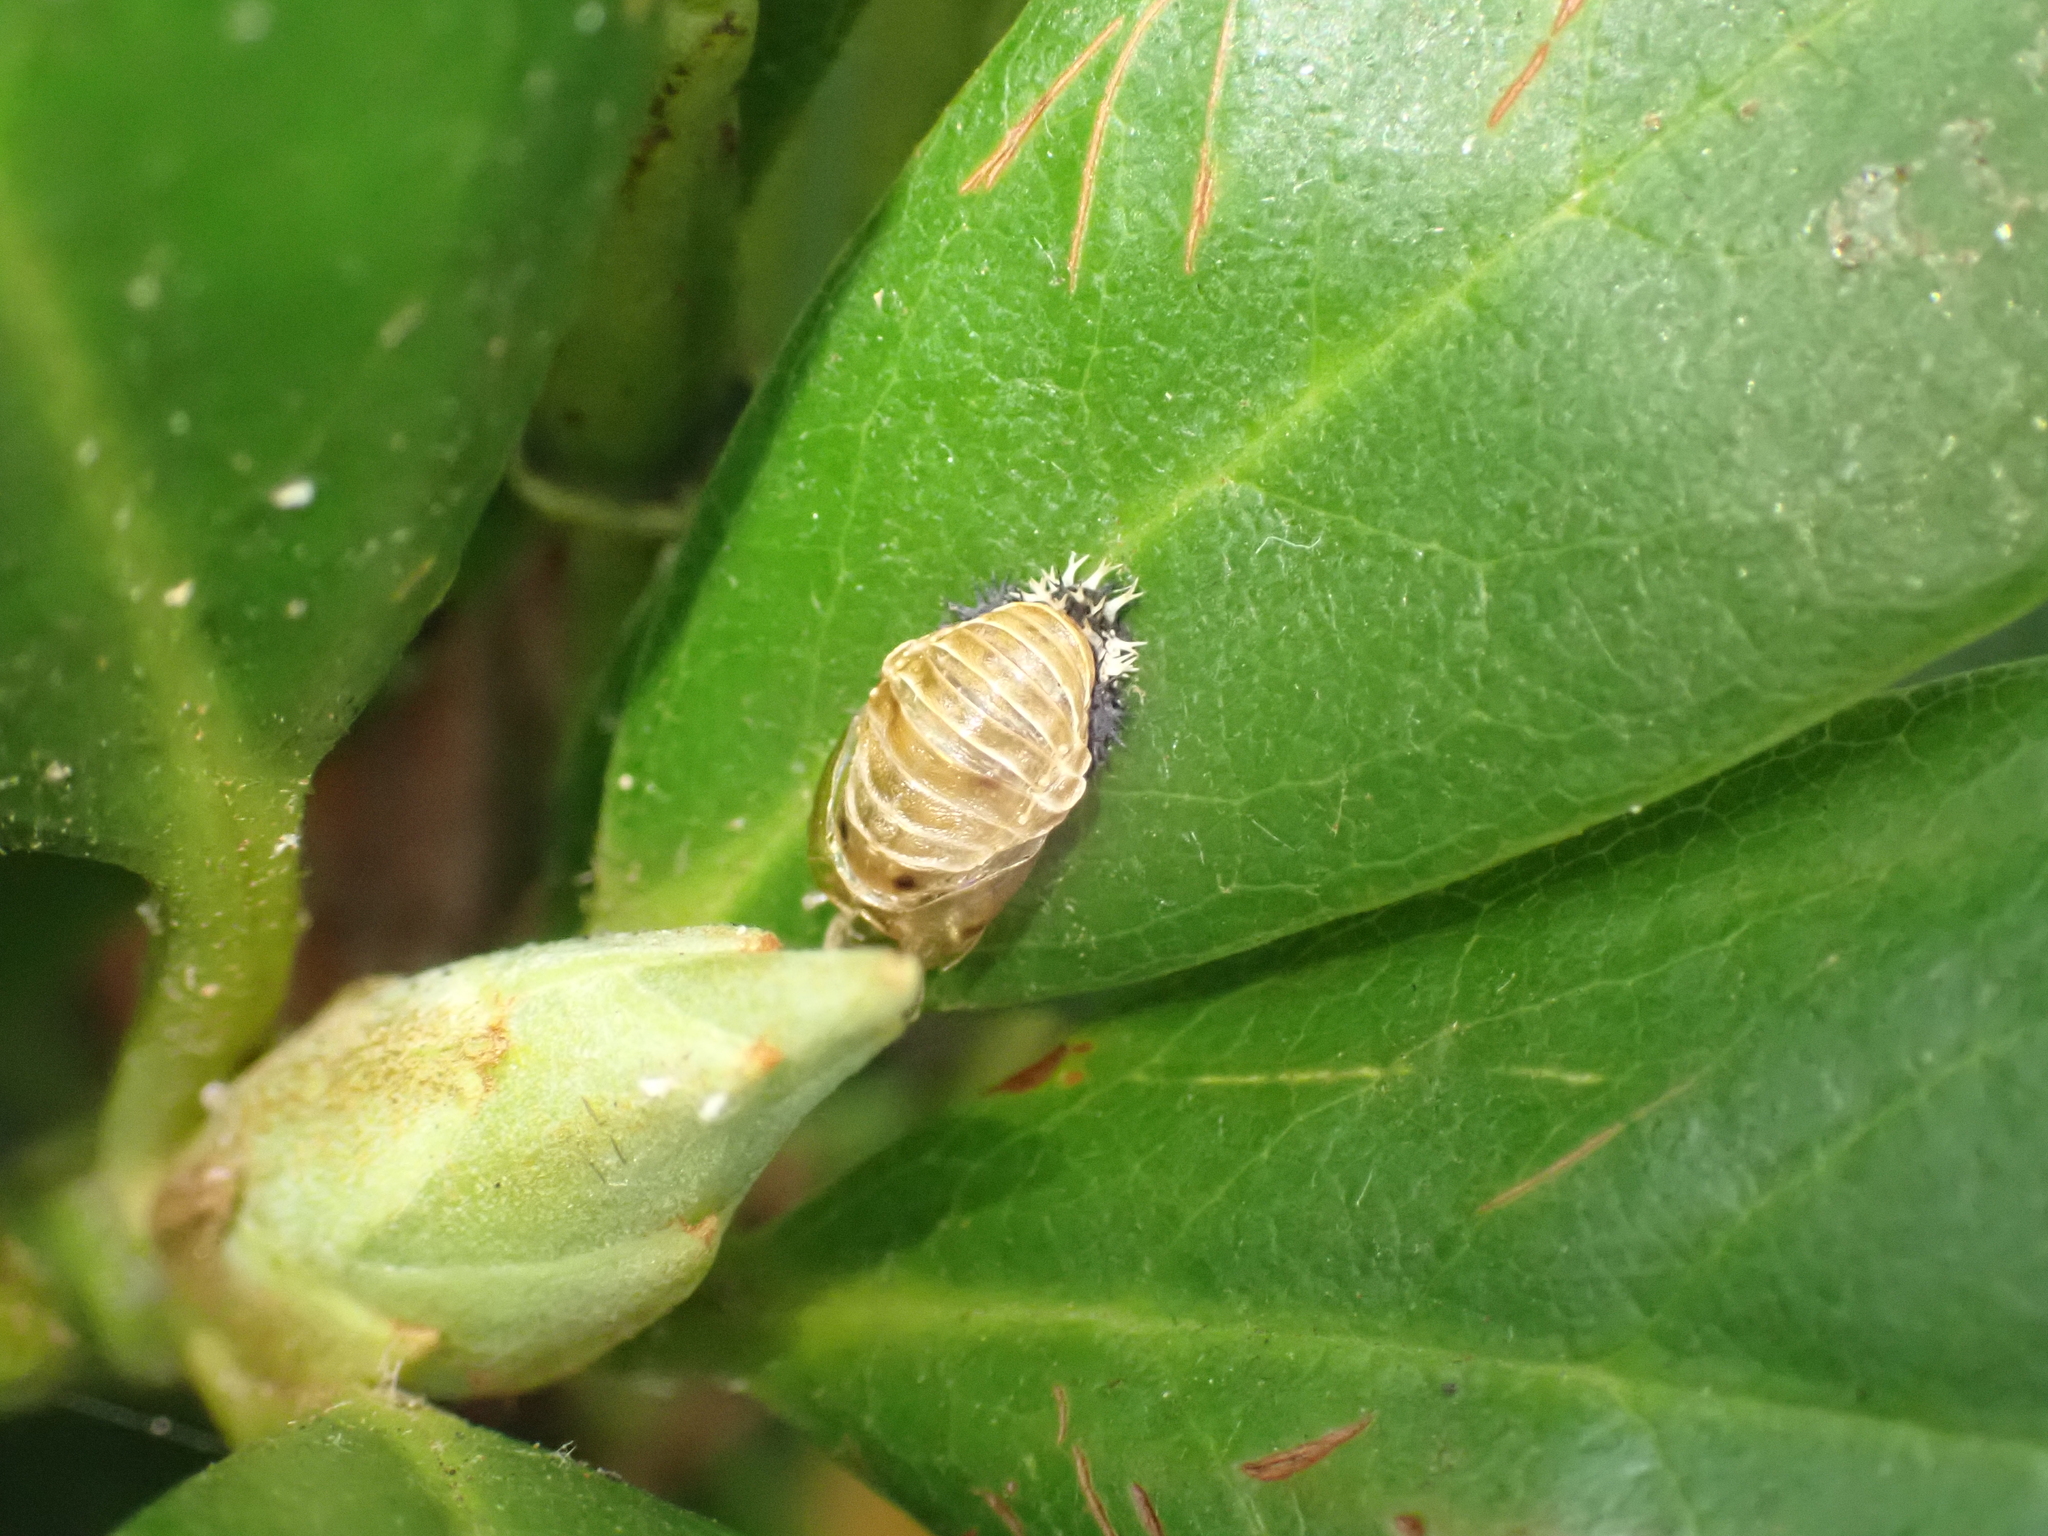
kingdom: Animalia
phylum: Arthropoda
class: Insecta
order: Coleoptera
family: Coccinellidae
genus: Harmonia
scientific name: Harmonia axyridis
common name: Harlequin ladybird
